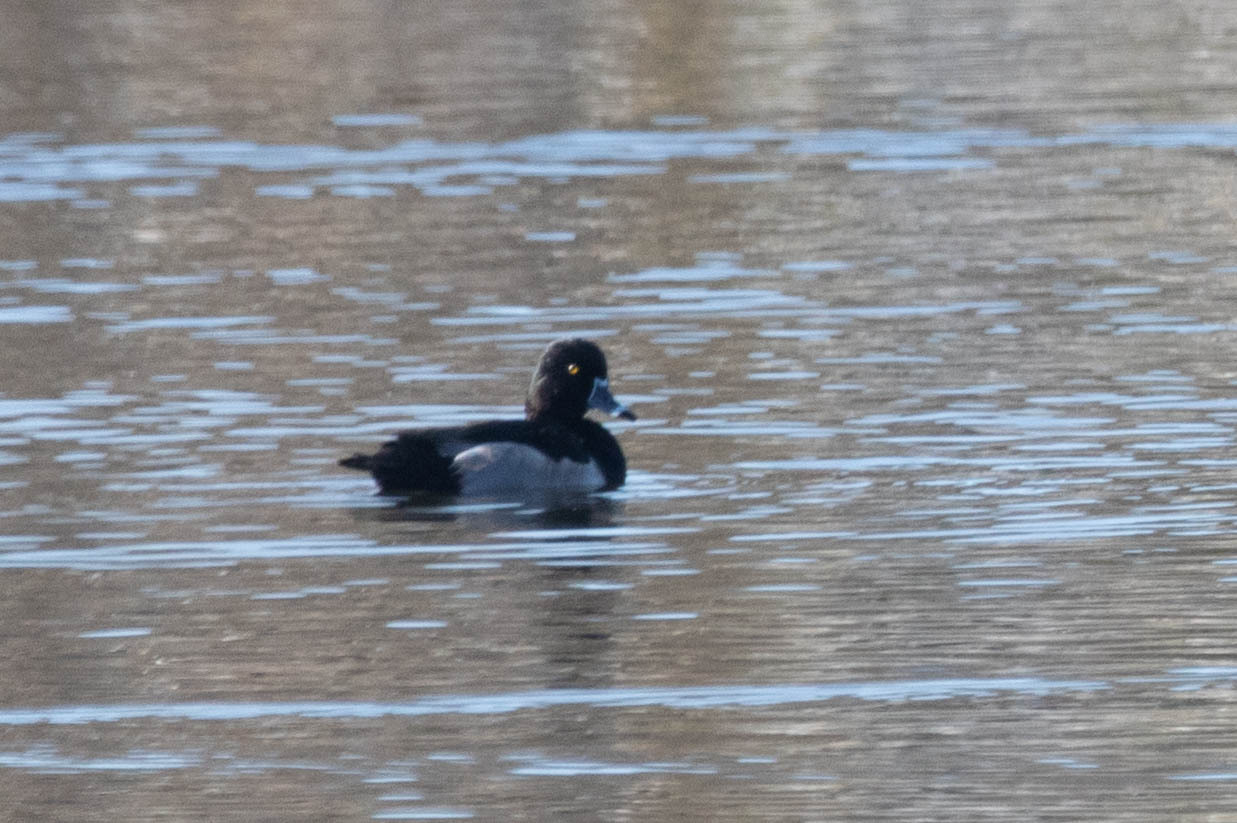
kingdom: Animalia
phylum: Chordata
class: Aves
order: Anseriformes
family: Anatidae
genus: Aythya
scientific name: Aythya collaris
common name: Ring-necked duck
